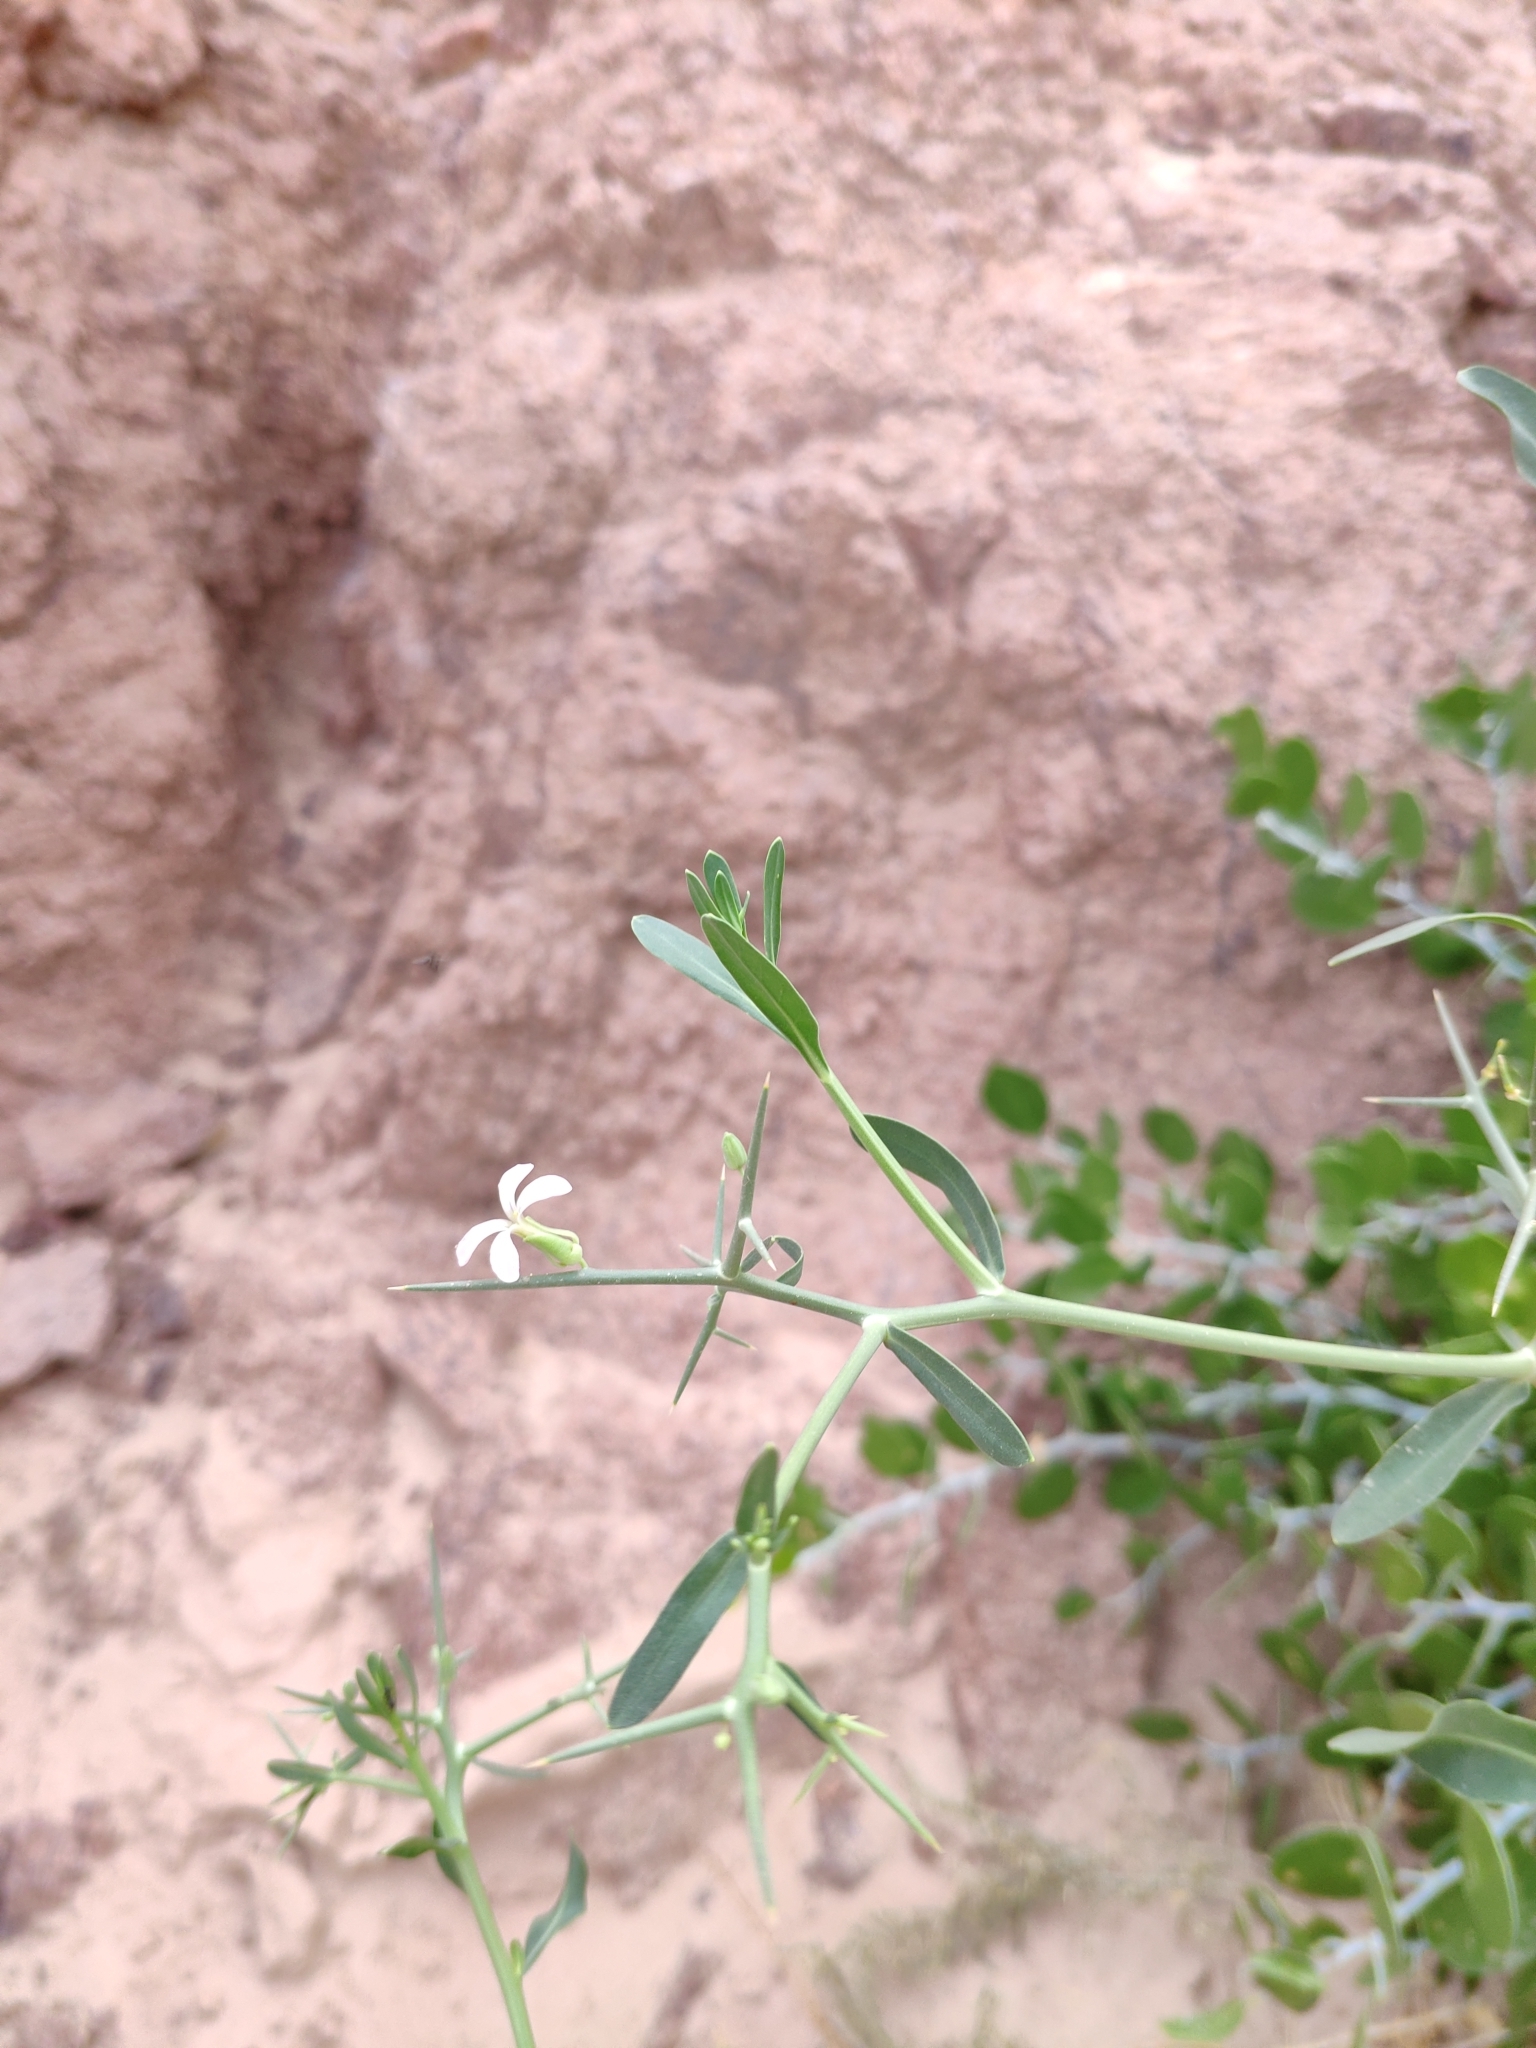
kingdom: Plantae
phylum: Tracheophyta
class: Magnoliopsida
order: Brassicales
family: Brassicaceae
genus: Zilla
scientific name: Zilla spinosa
